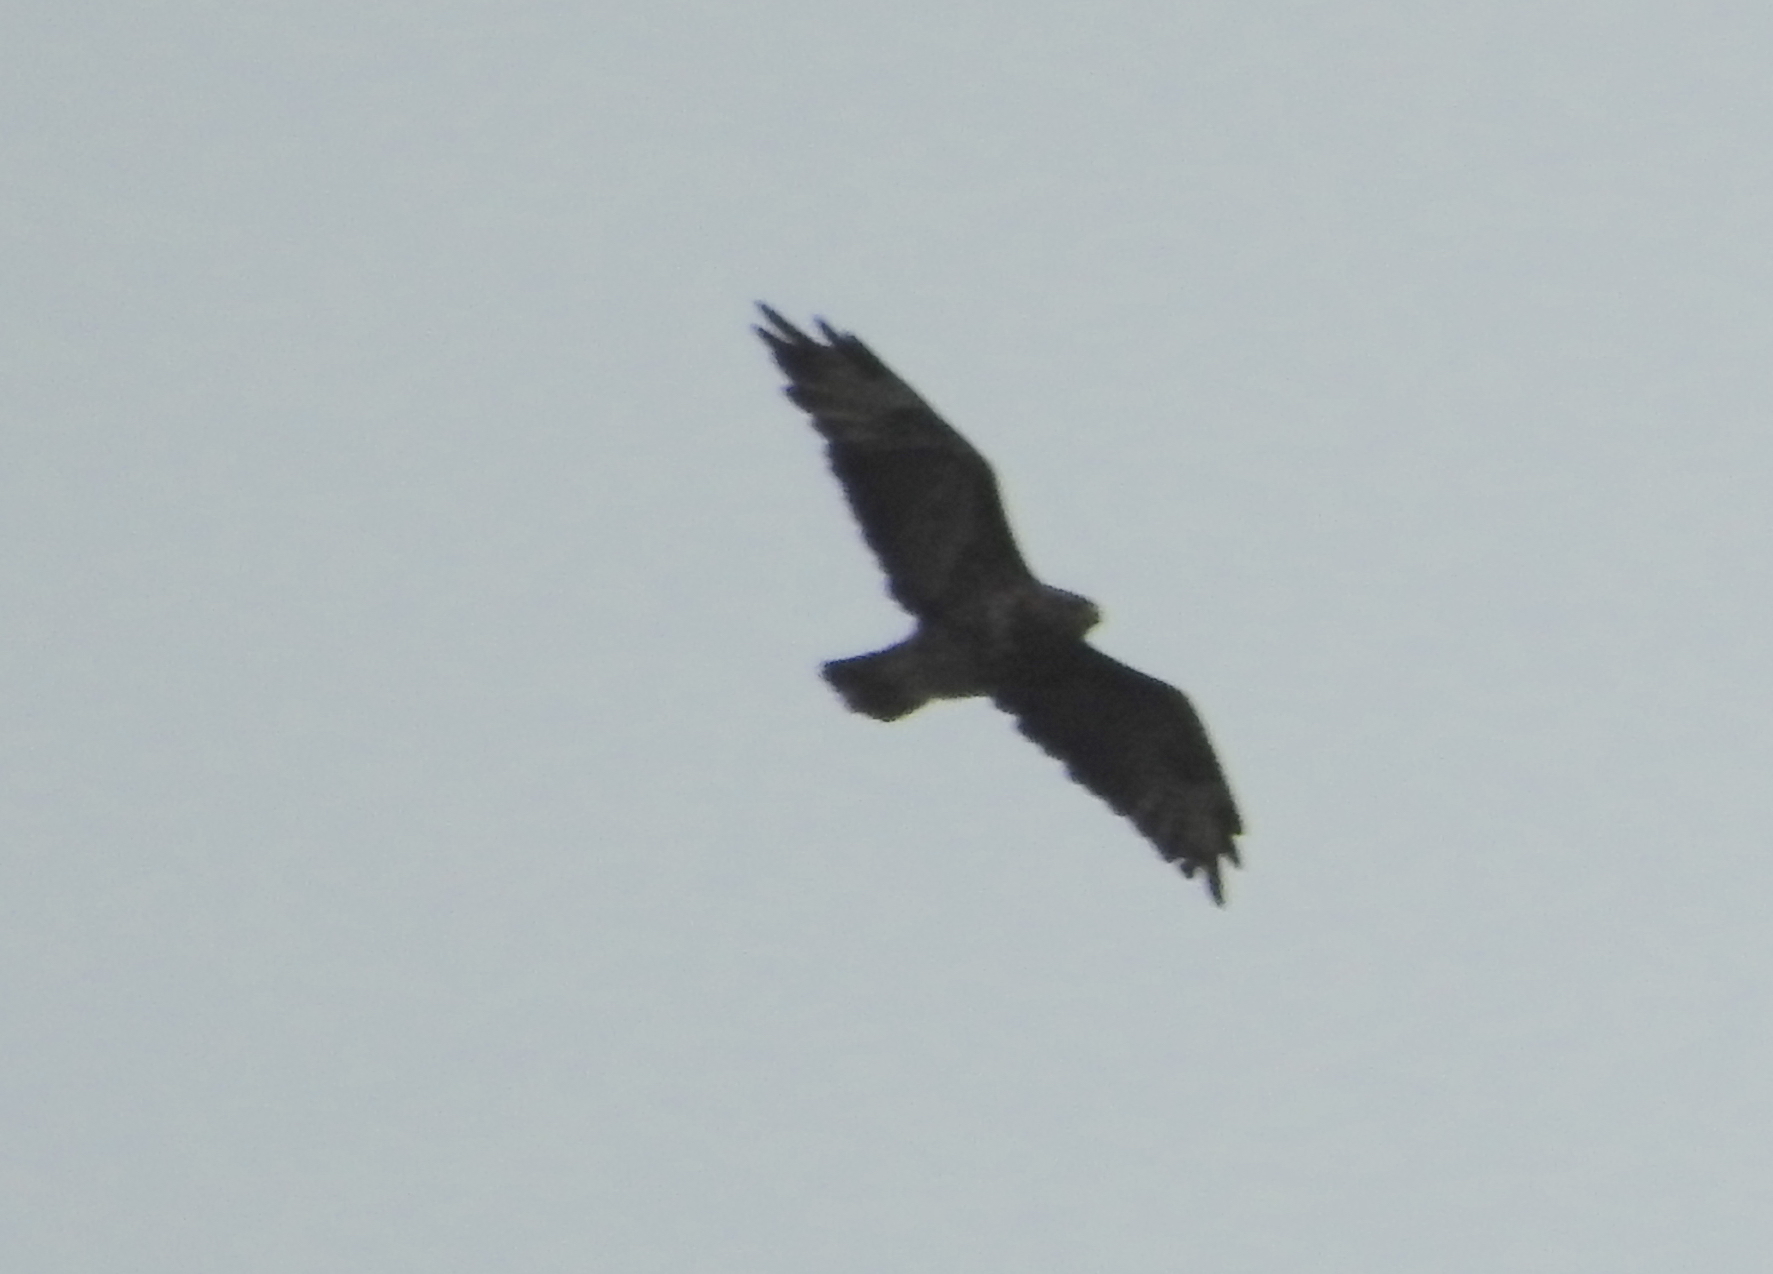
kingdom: Animalia
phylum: Chordata
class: Aves
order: Accipitriformes
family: Accipitridae
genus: Buteo
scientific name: Buteo buteo
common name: Common buzzard
